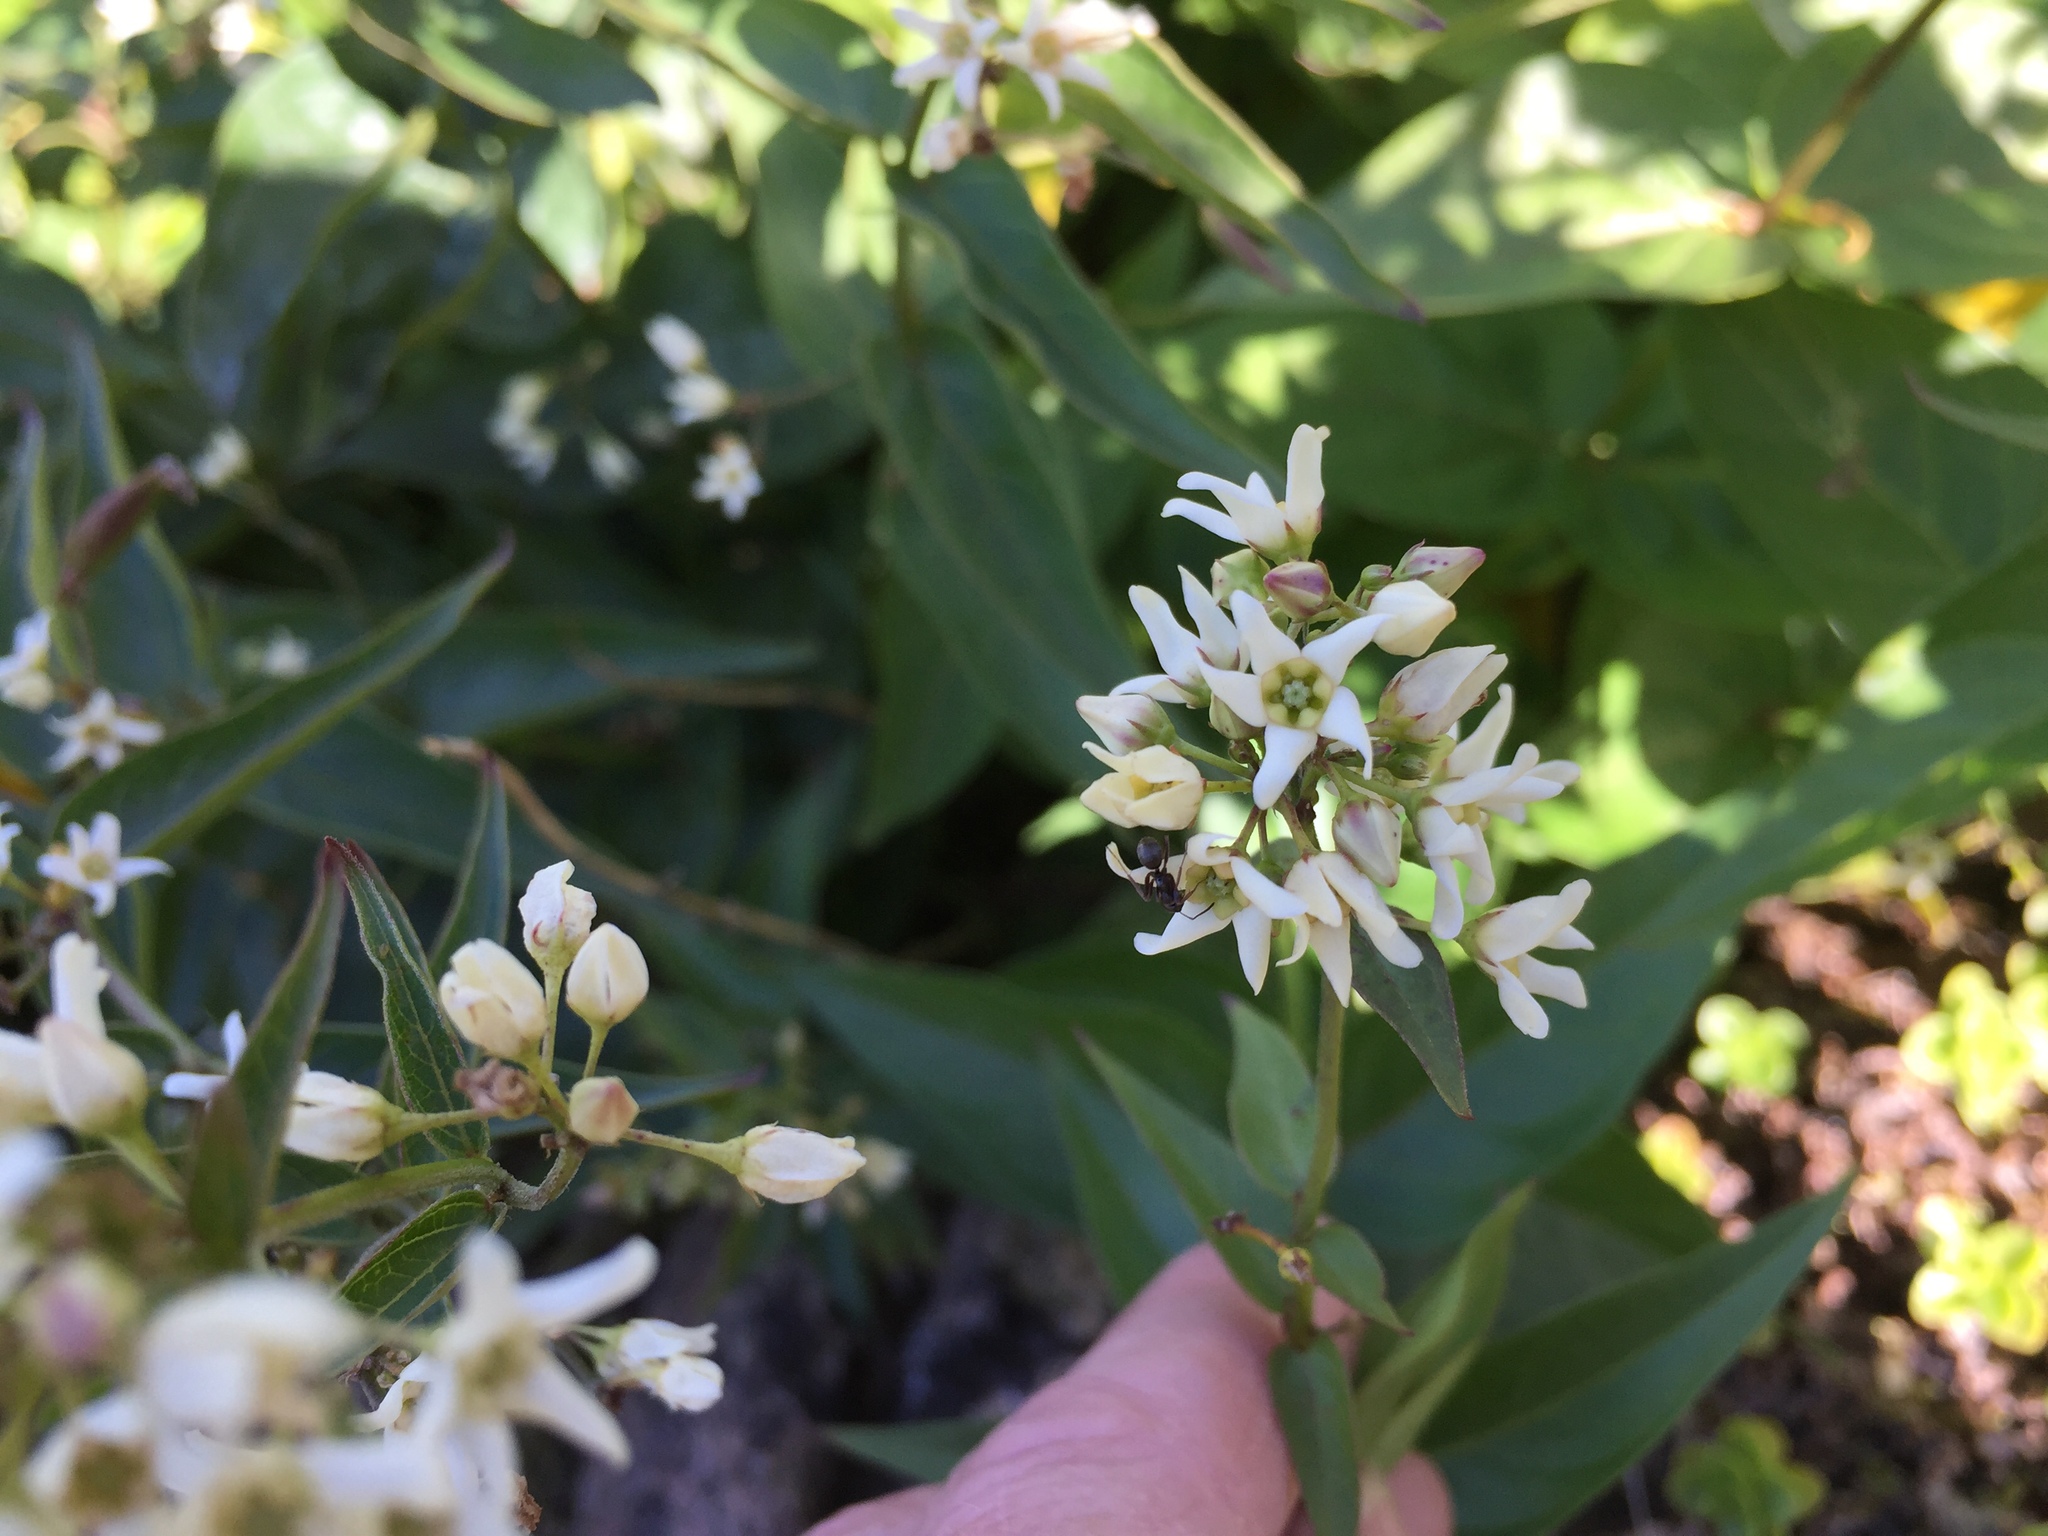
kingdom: Plantae
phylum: Tracheophyta
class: Magnoliopsida
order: Gentianales
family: Apocynaceae
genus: Vincetoxicum
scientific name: Vincetoxicum hirundinaria
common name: White swallowwort
